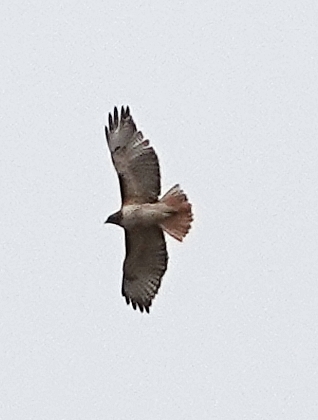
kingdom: Animalia
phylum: Chordata
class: Aves
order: Accipitriformes
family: Accipitridae
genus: Buteo
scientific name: Buteo jamaicensis
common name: Red-tailed hawk
